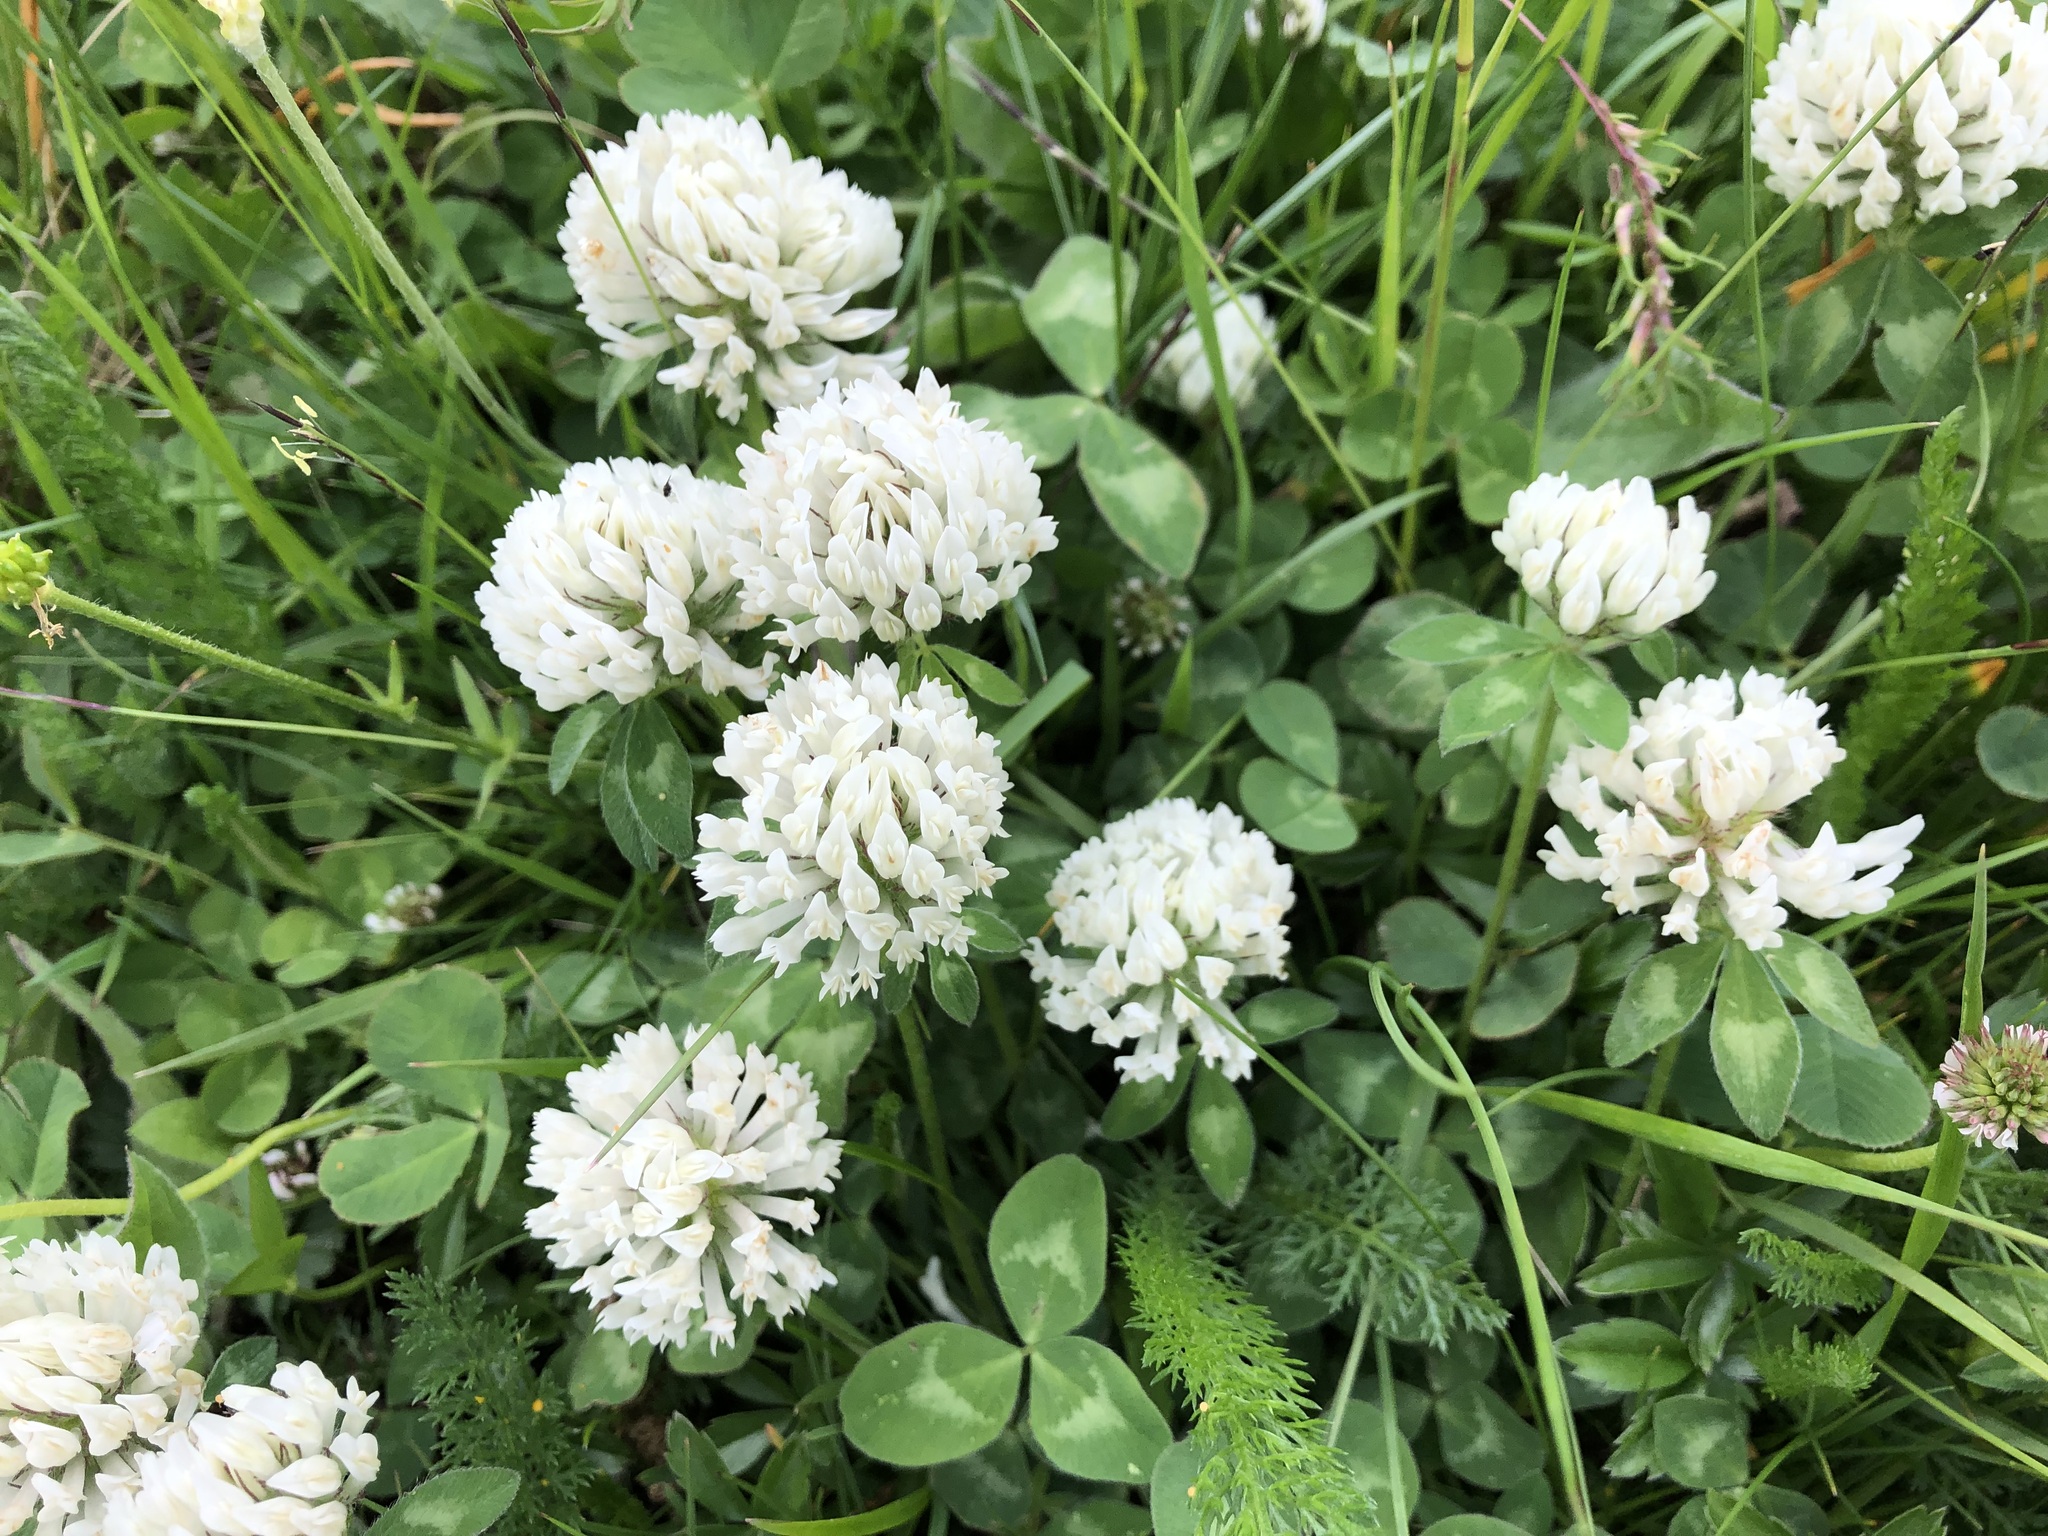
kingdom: Plantae
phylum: Tracheophyta
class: Magnoliopsida
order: Fabales
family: Fabaceae
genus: Trifolium
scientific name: Trifolium repens
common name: White clover
